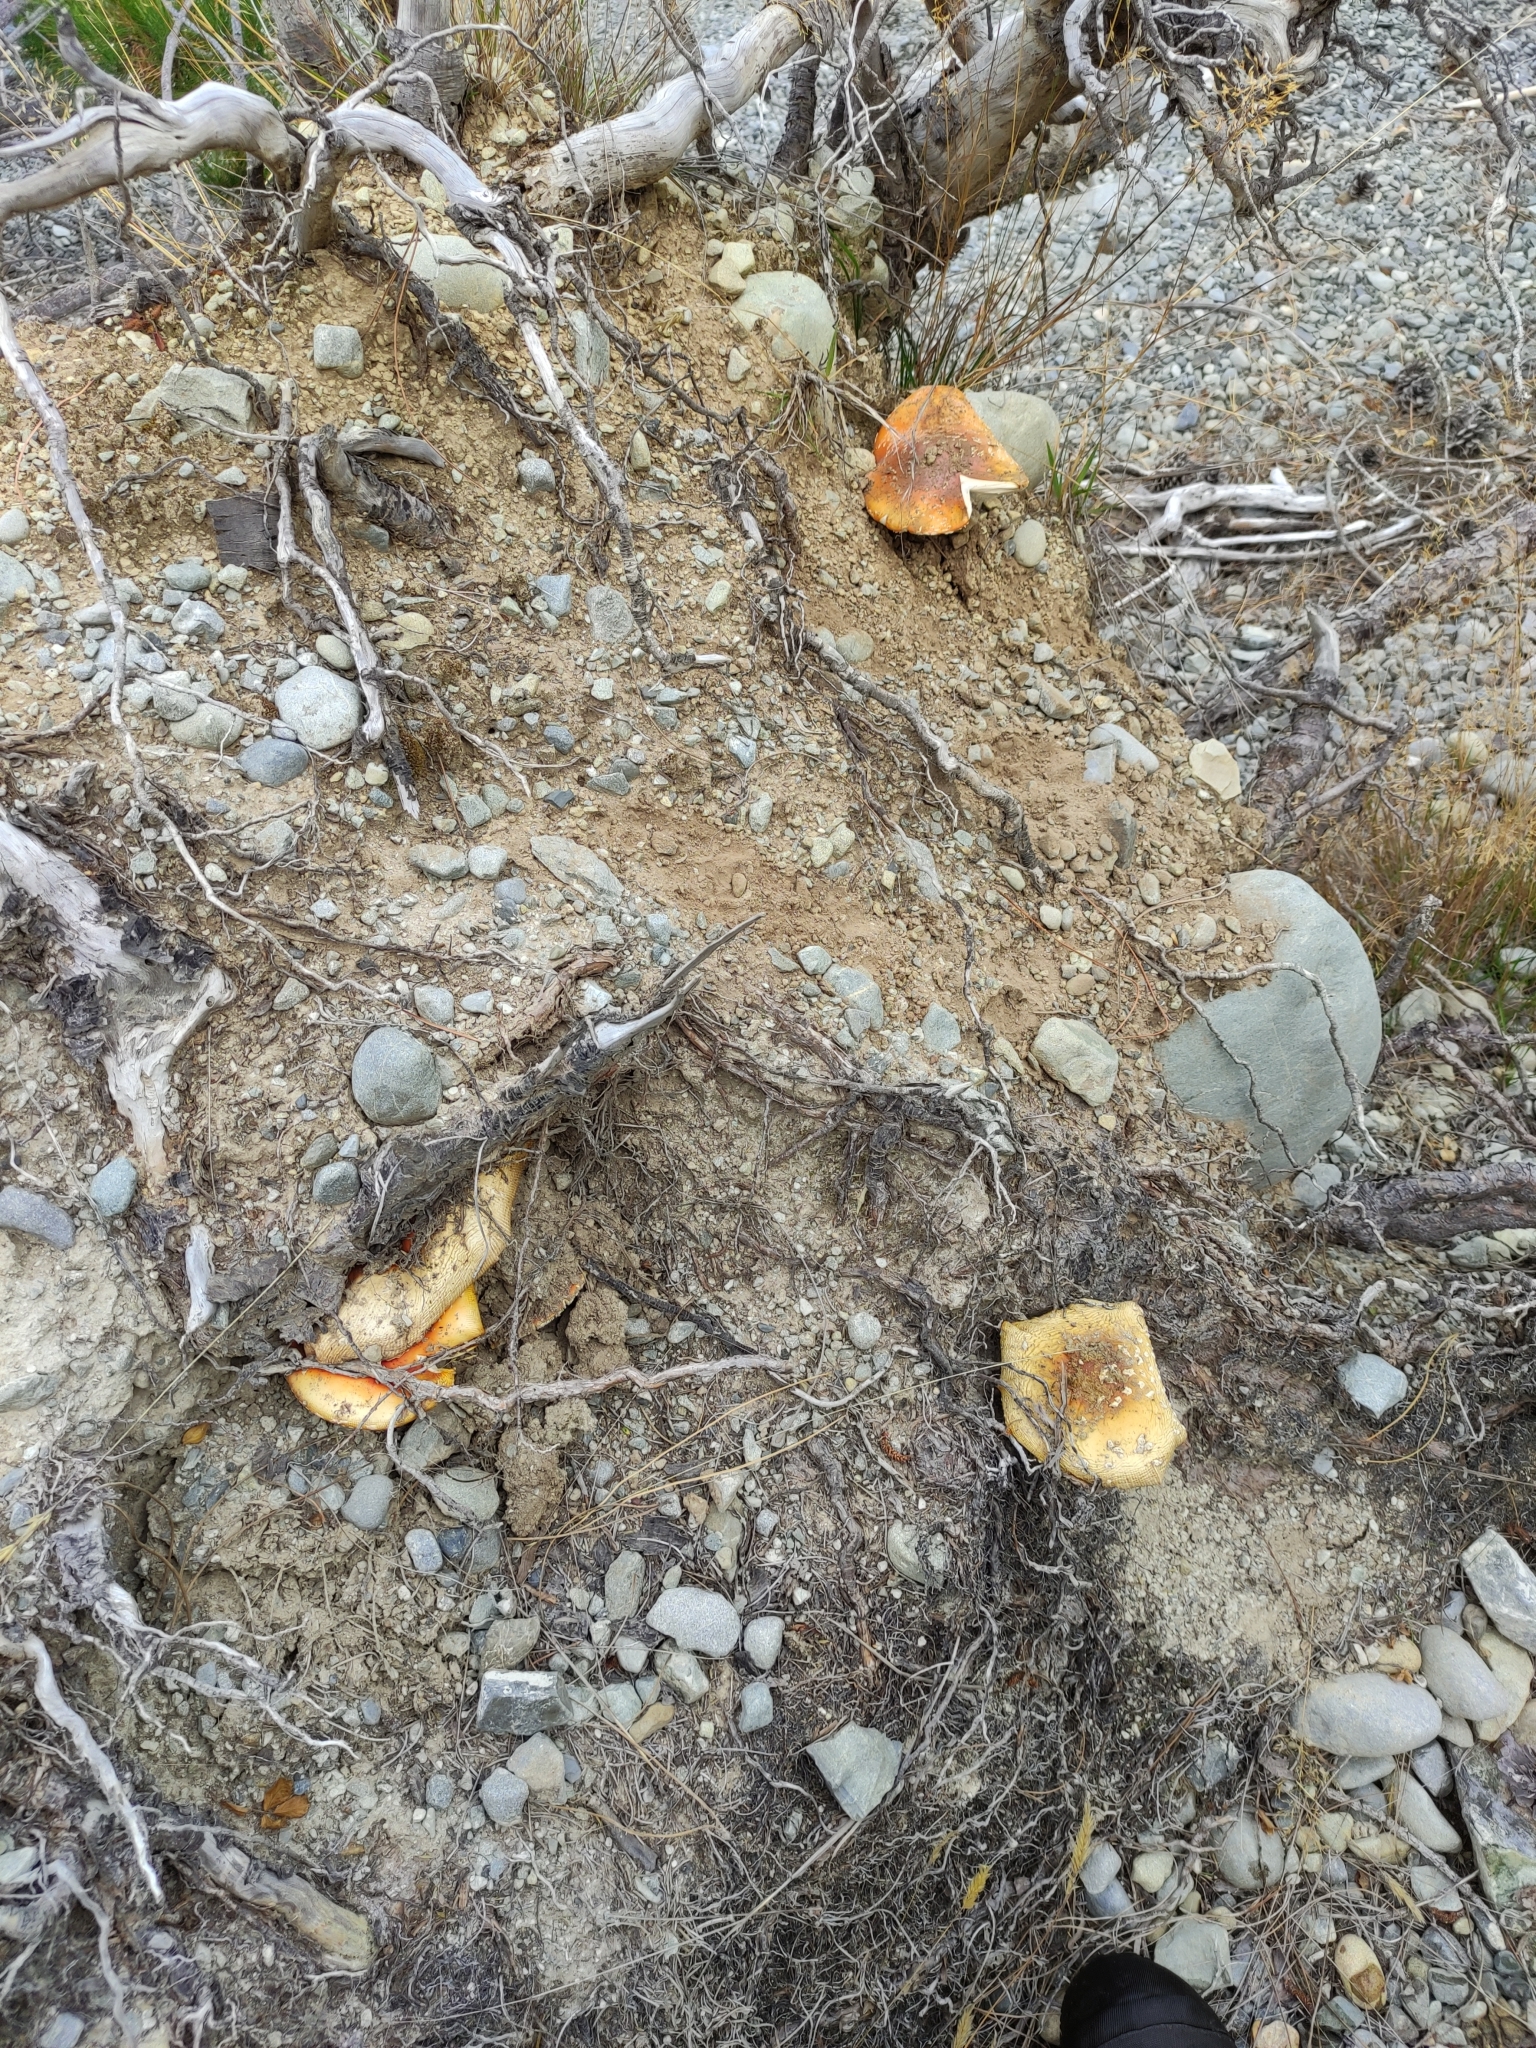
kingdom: Fungi
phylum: Basidiomycota
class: Agaricomycetes
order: Agaricales
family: Amanitaceae
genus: Amanita
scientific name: Amanita muscaria
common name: Fly agaric
